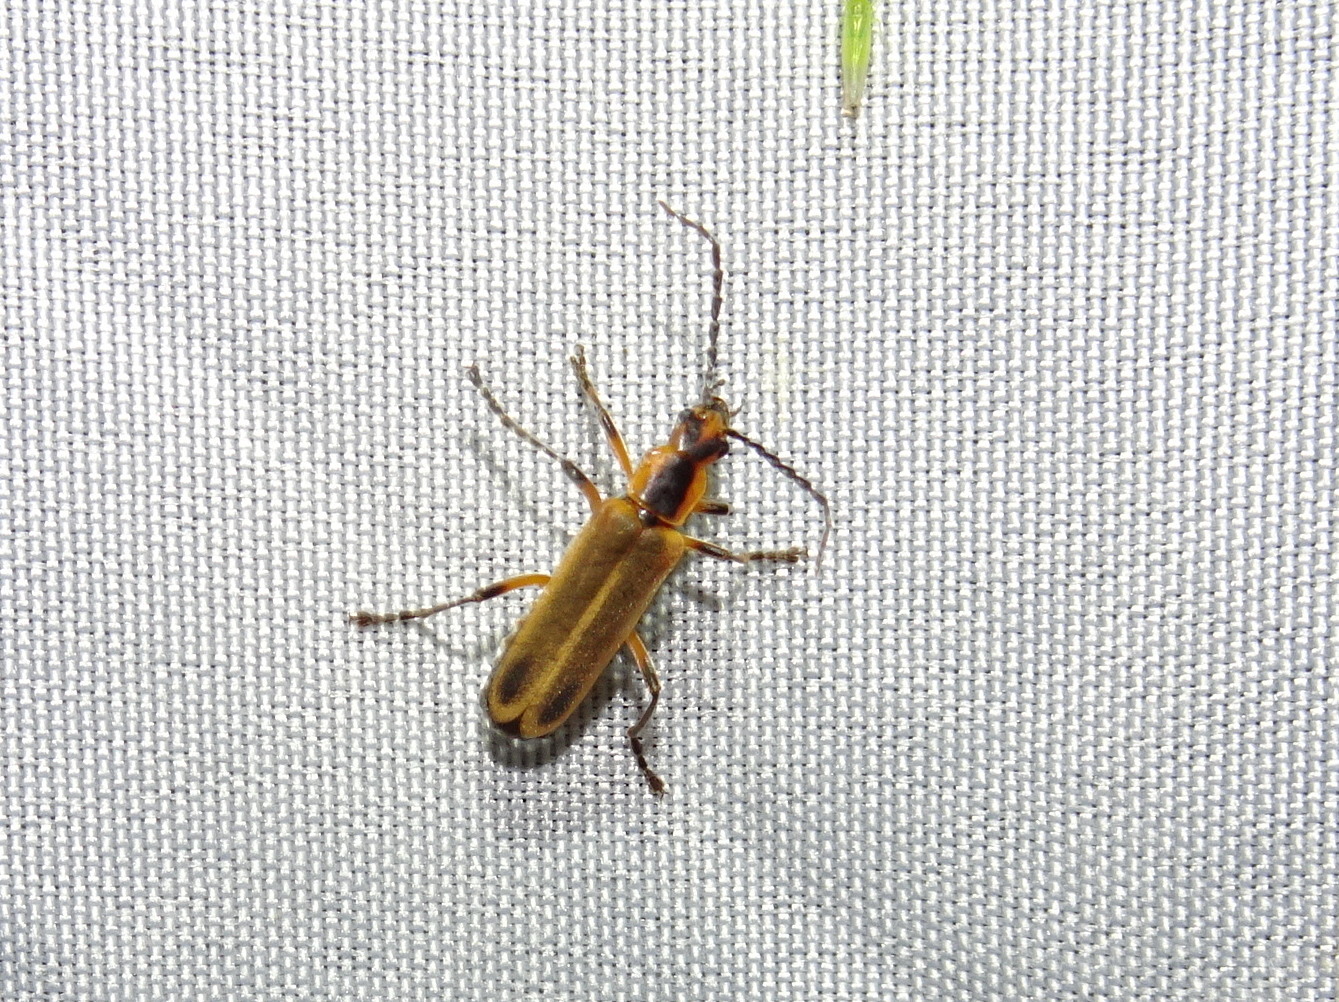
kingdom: Animalia
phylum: Arthropoda
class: Insecta
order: Coleoptera
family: Cantharidae
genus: Chauliognathus
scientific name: Chauliognathus marginatus
